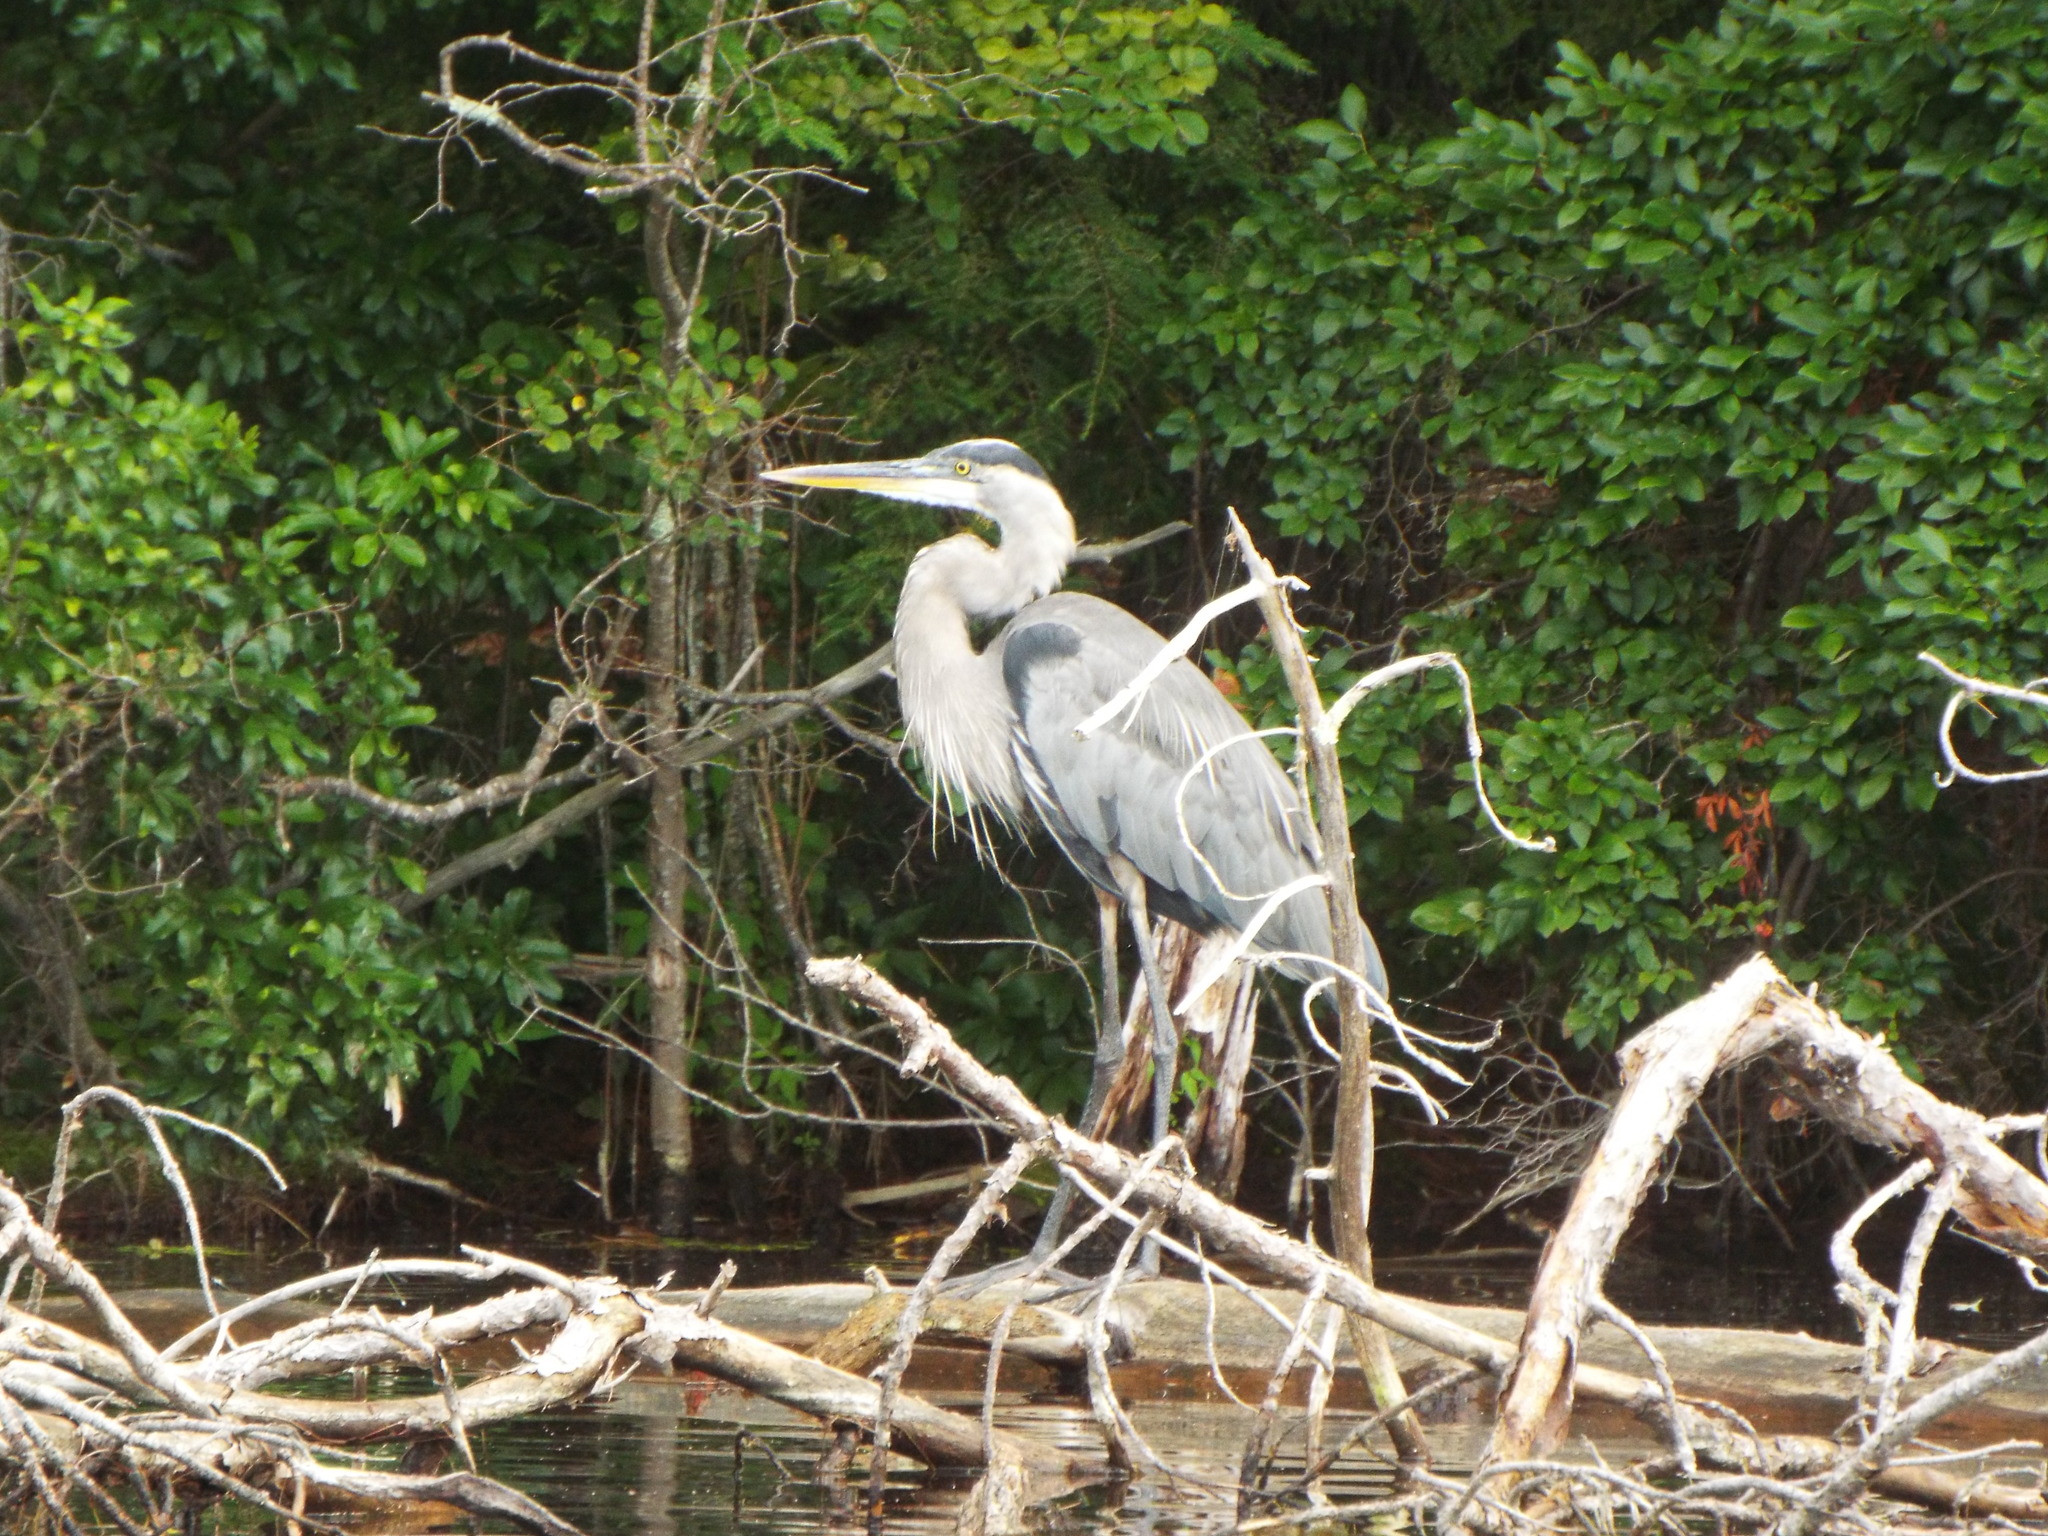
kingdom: Animalia
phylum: Chordata
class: Aves
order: Pelecaniformes
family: Ardeidae
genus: Ardea
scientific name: Ardea herodias
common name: Great blue heron
